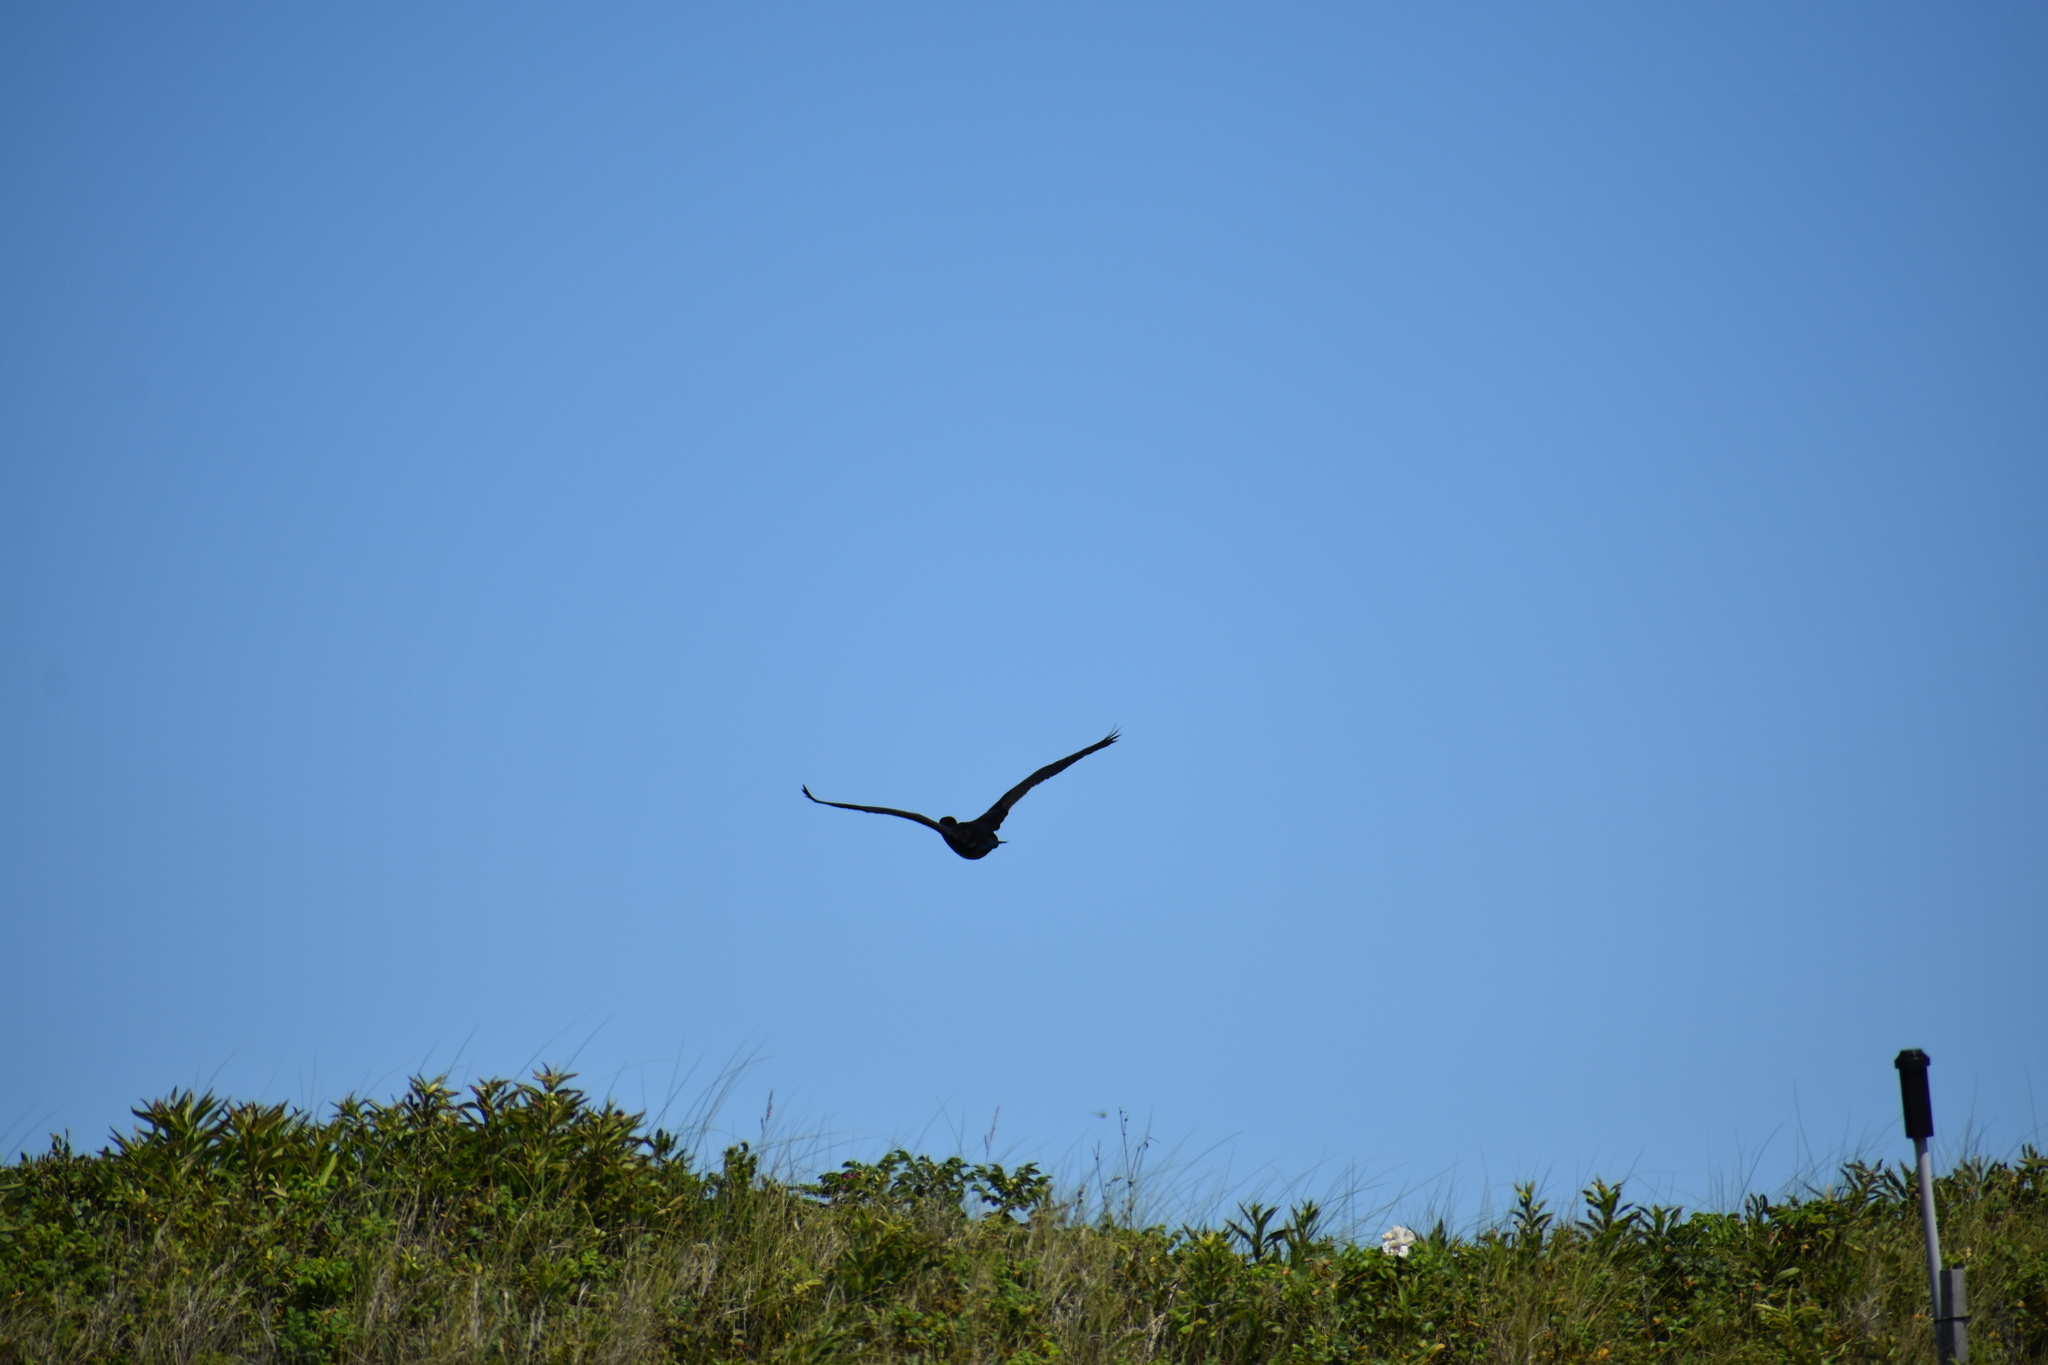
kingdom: Animalia
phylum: Chordata
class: Aves
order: Suliformes
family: Phalacrocoracidae
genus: Phalacrocorax
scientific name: Phalacrocorax auritus
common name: Double-crested cormorant
